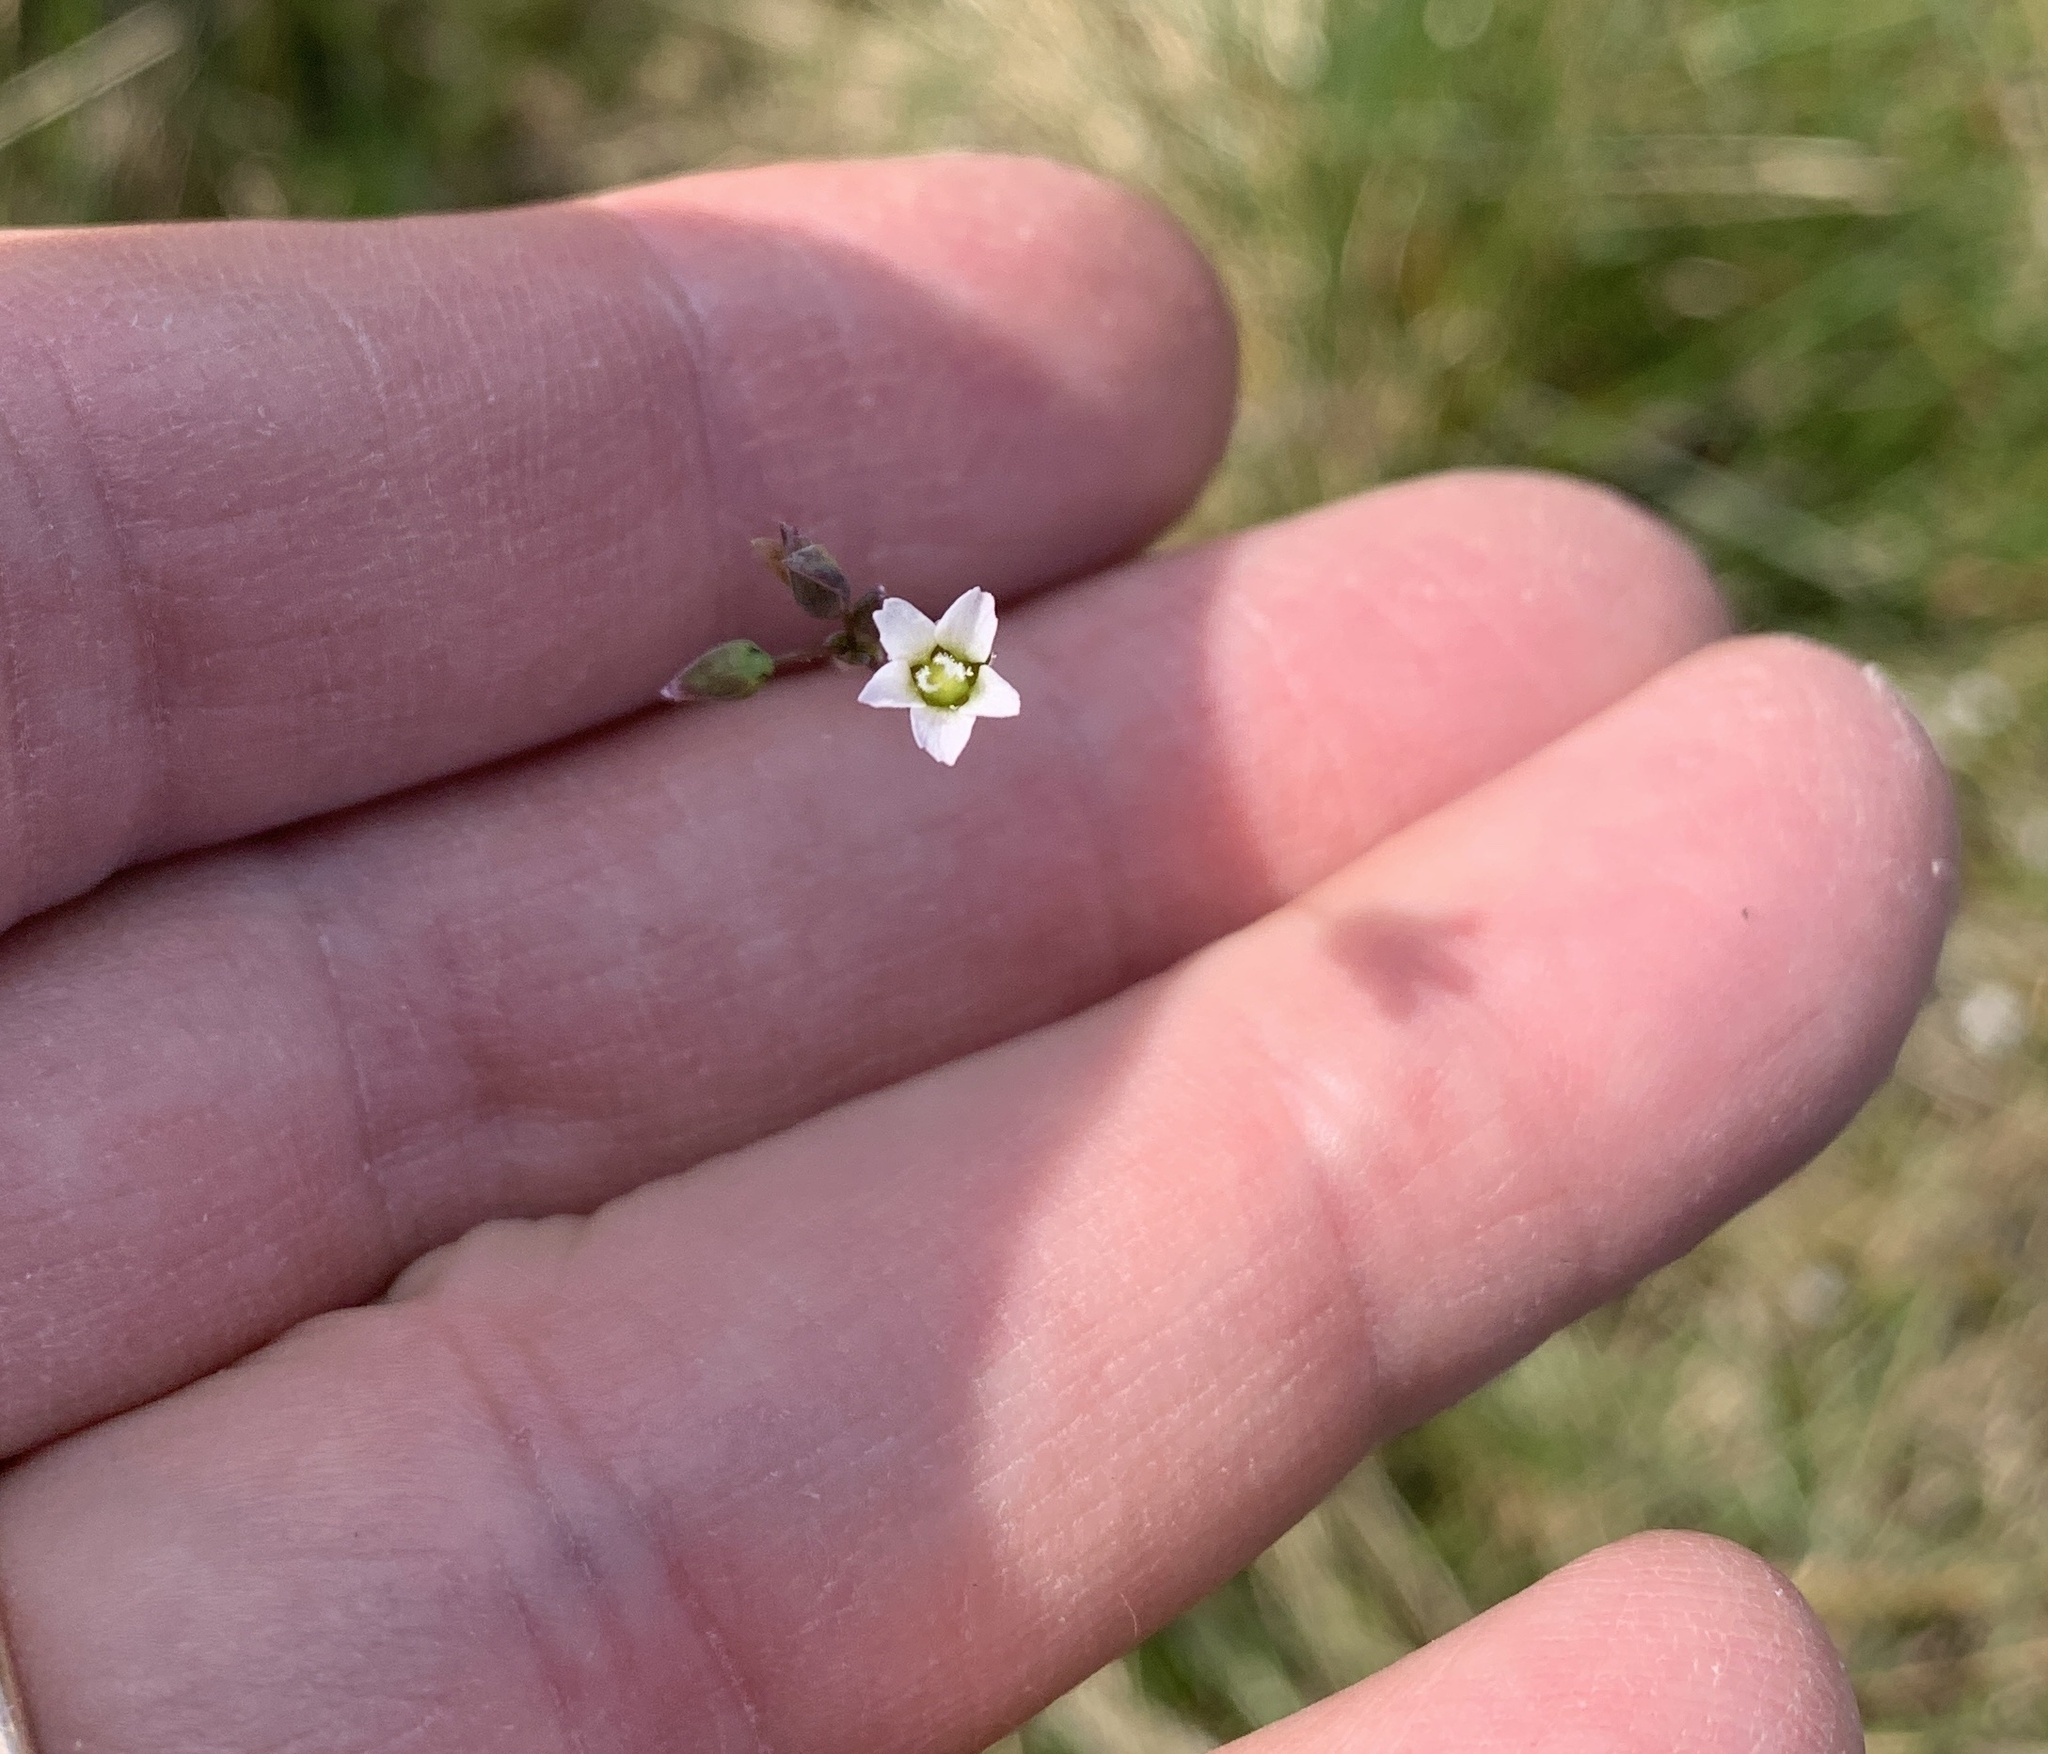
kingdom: Plantae
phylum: Tracheophyta
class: Magnoliopsida
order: Caryophyllales
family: Caryophyllaceae
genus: Holosteum
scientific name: Holosteum umbellatum
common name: Jagged chickweed
